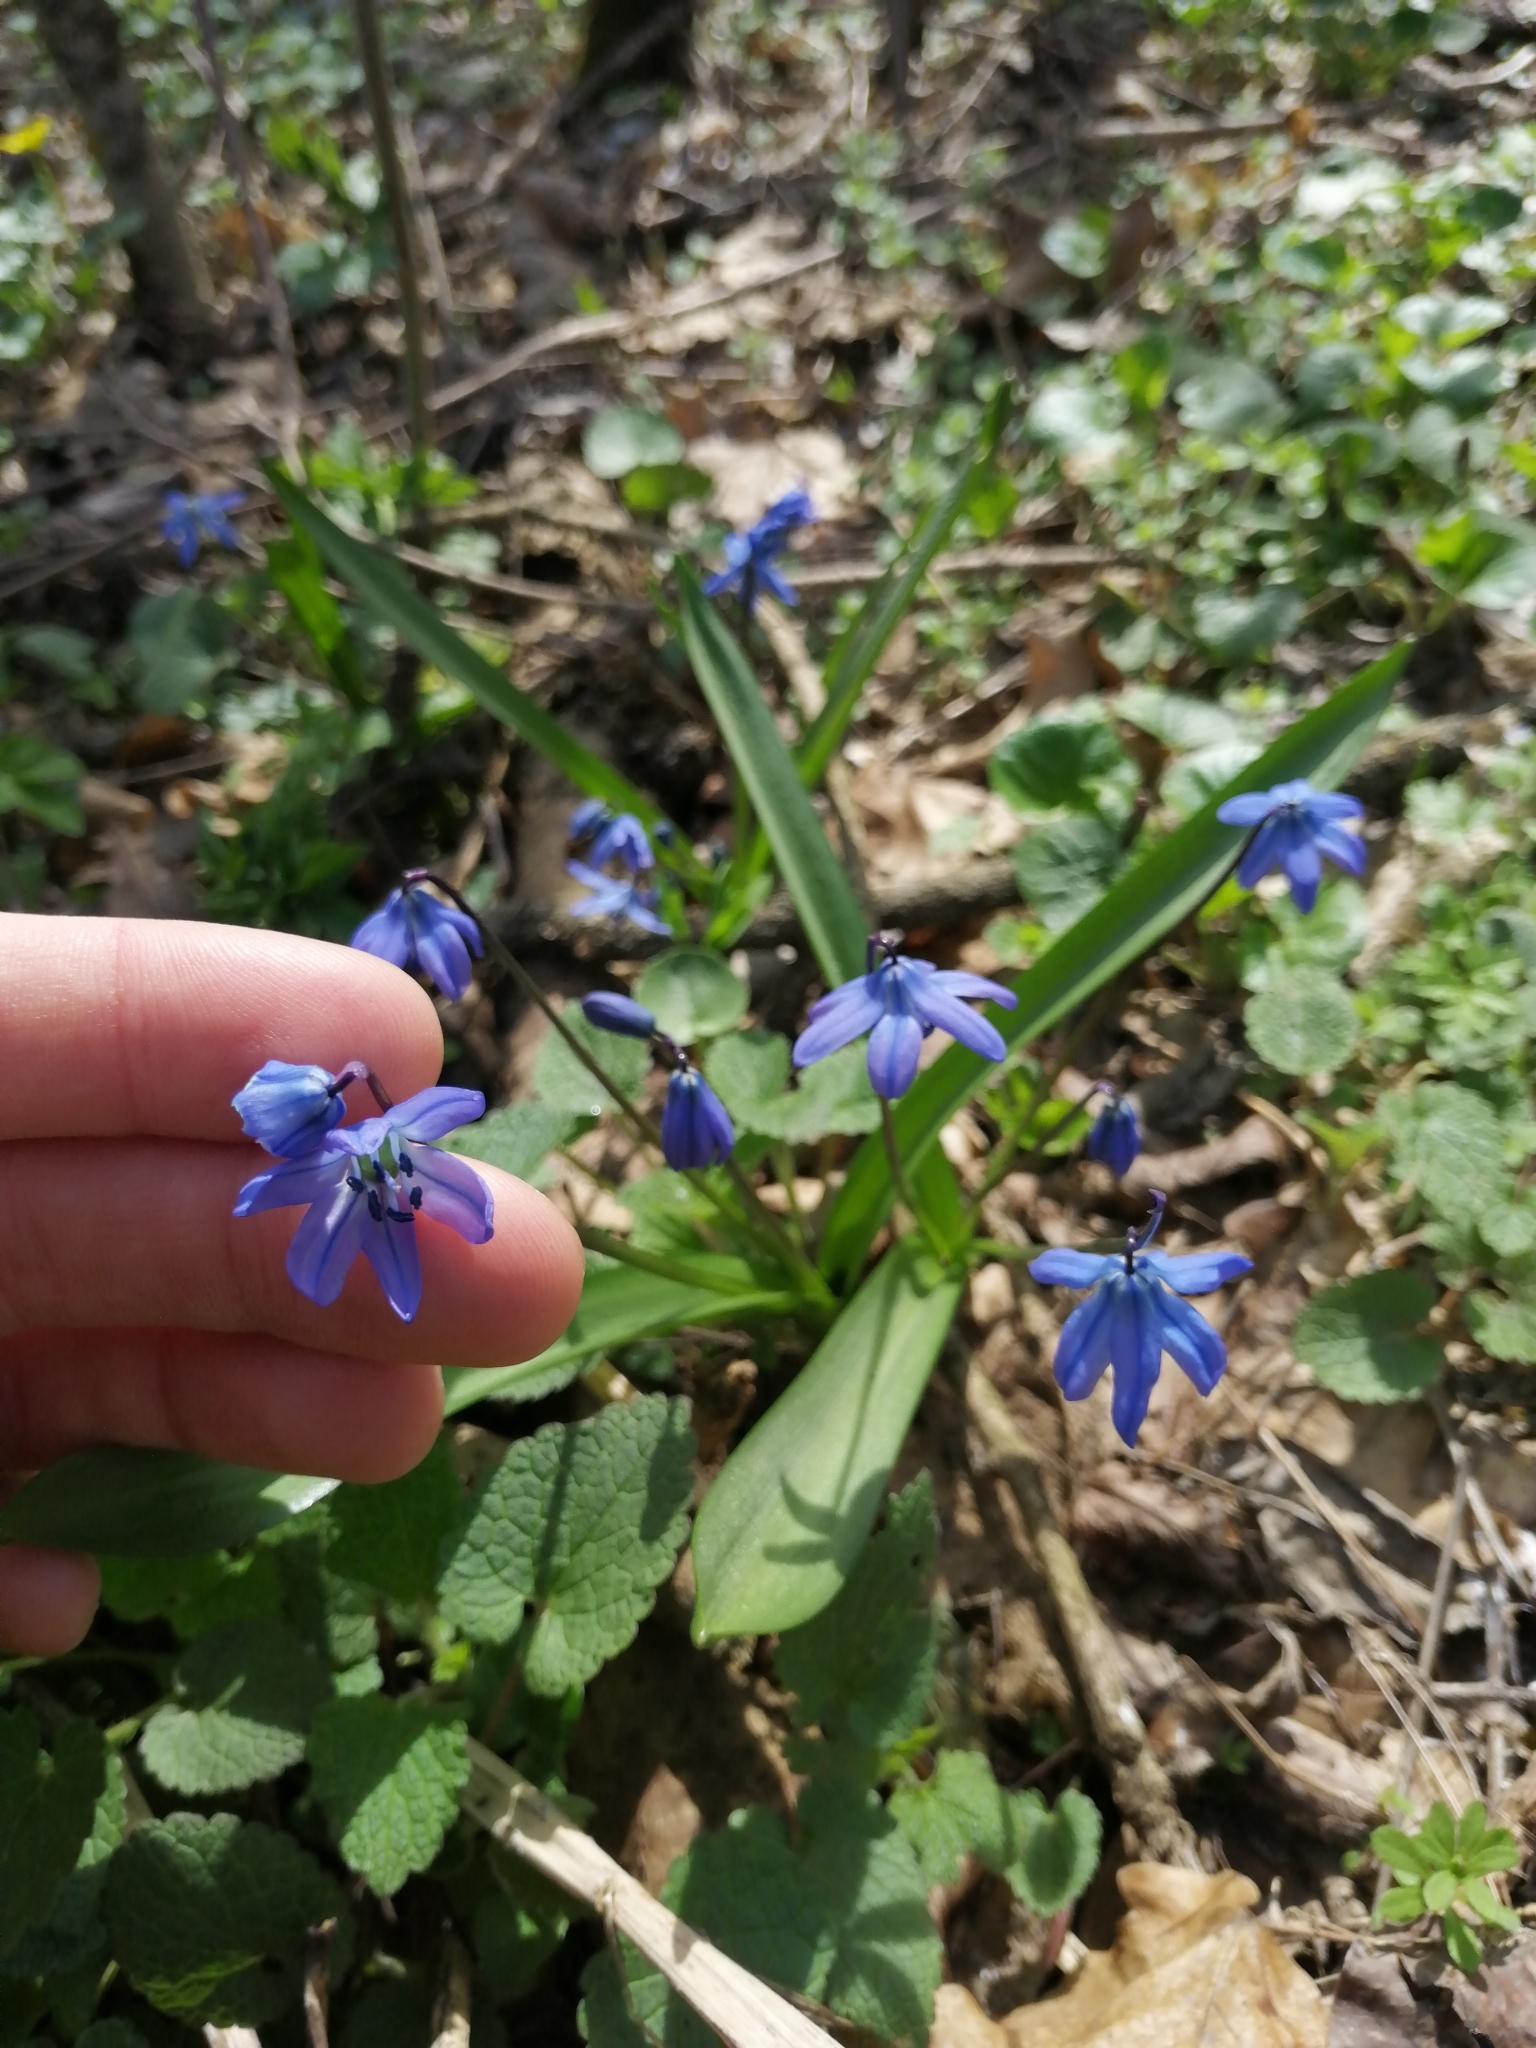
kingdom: Plantae
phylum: Tracheophyta
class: Liliopsida
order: Asparagales
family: Asparagaceae
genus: Scilla
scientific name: Scilla siberica
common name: Siberian squill
